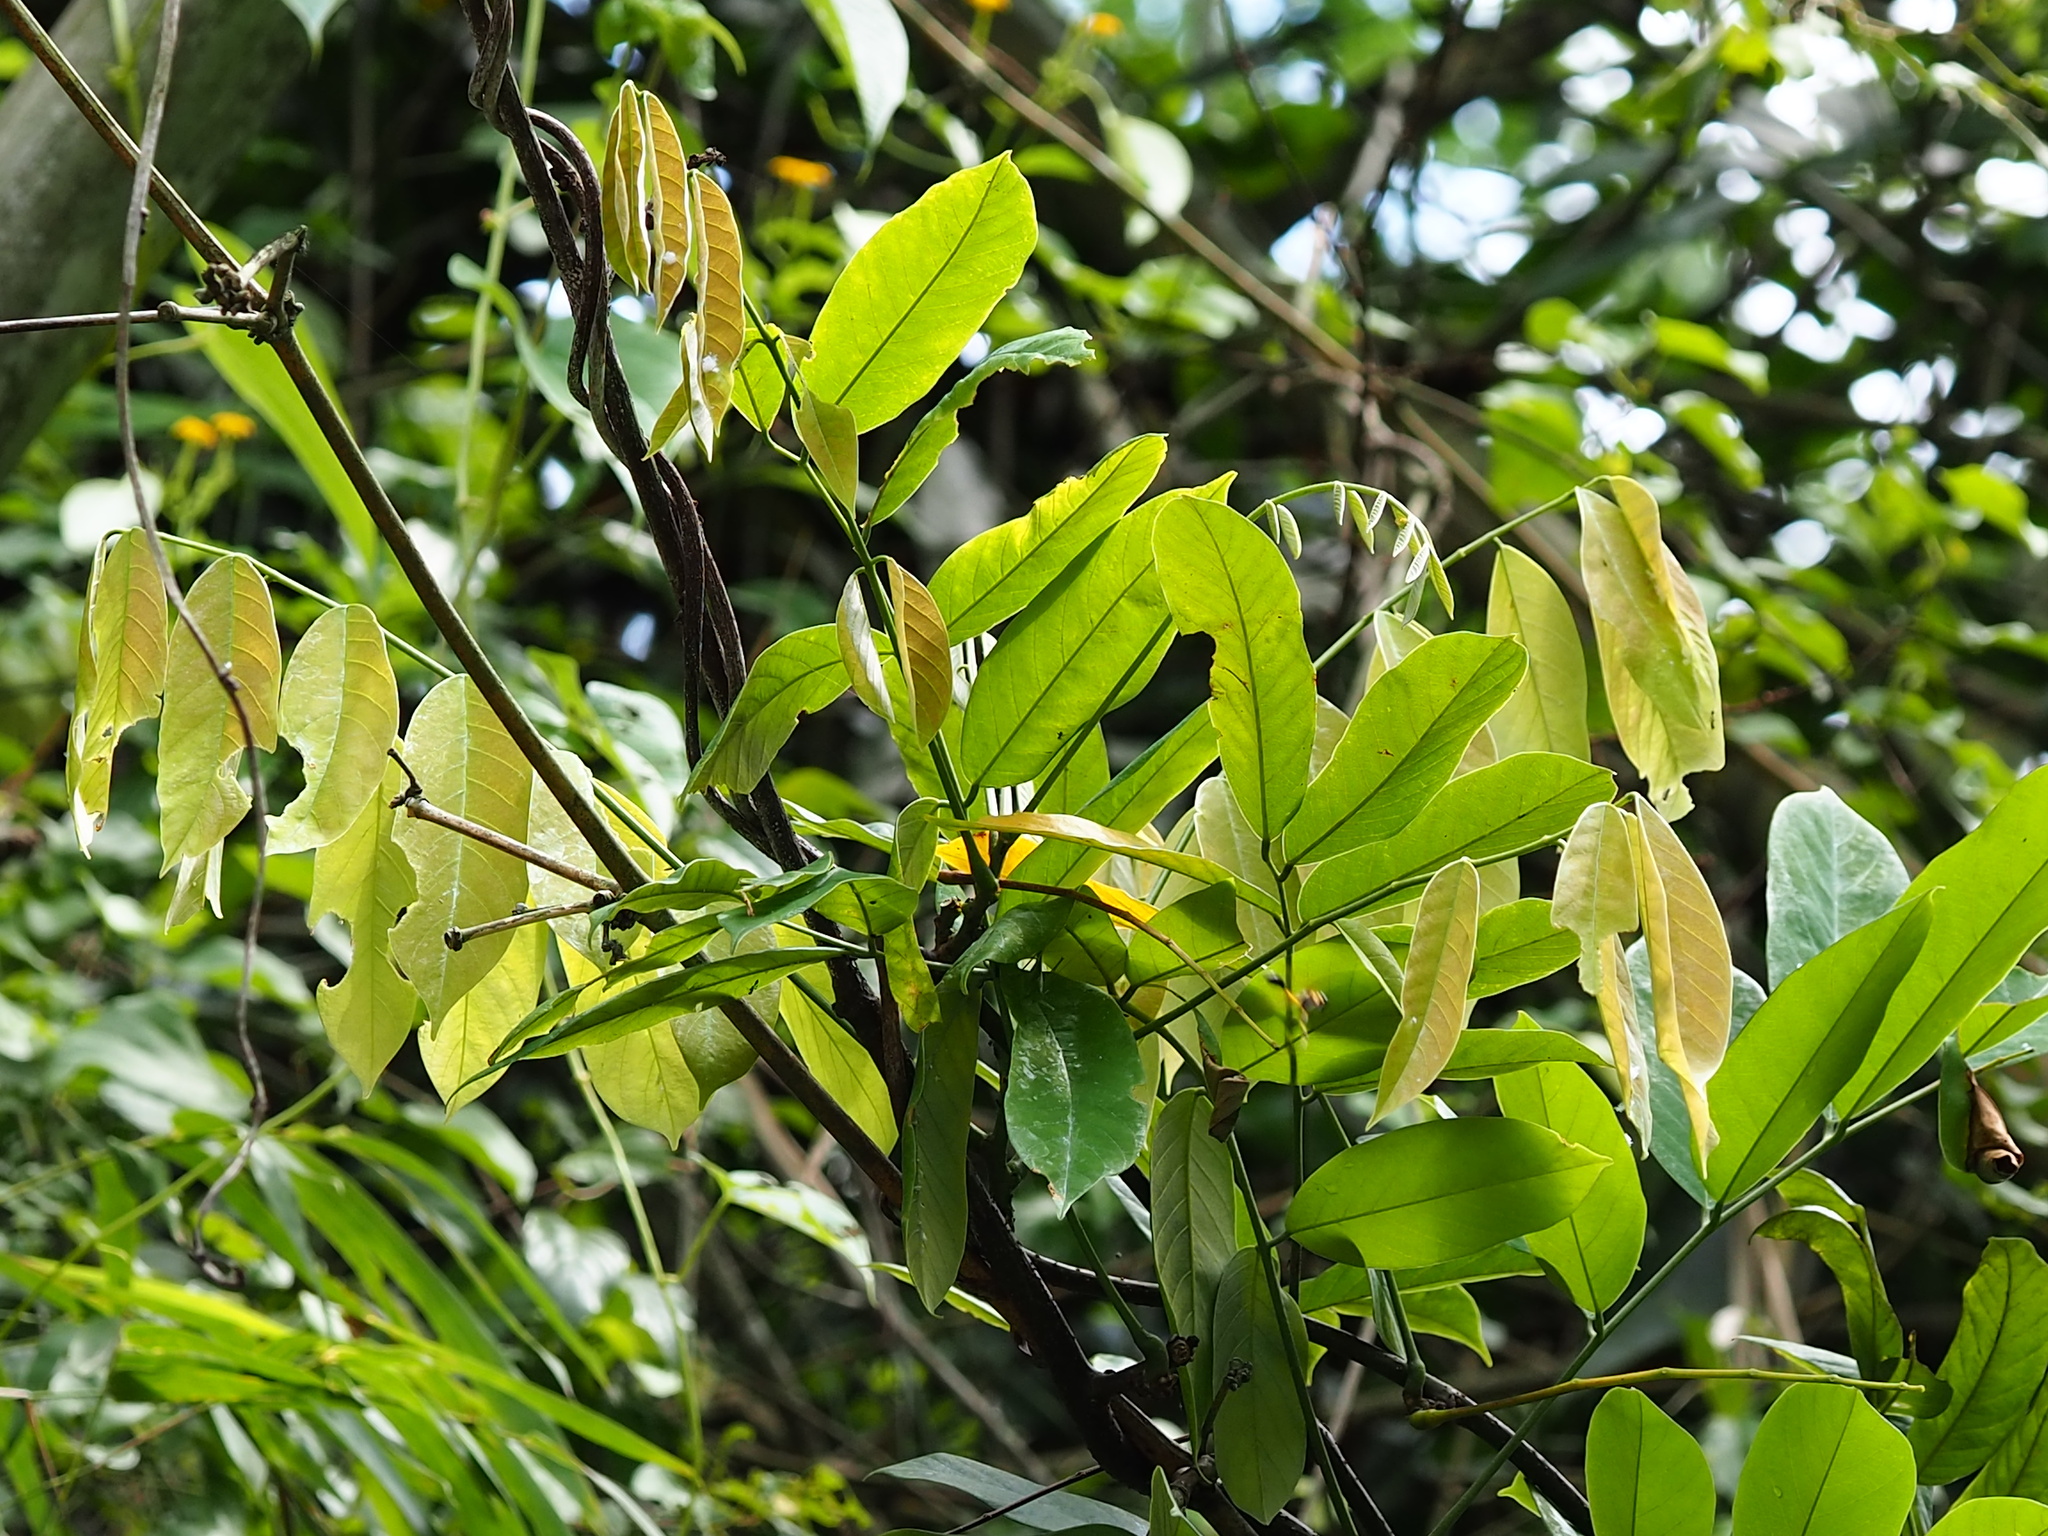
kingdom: Plantae
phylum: Tracheophyta
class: Magnoliopsida
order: Fabales
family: Fabaceae
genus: Millettia
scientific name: Millettia pachycarpa
